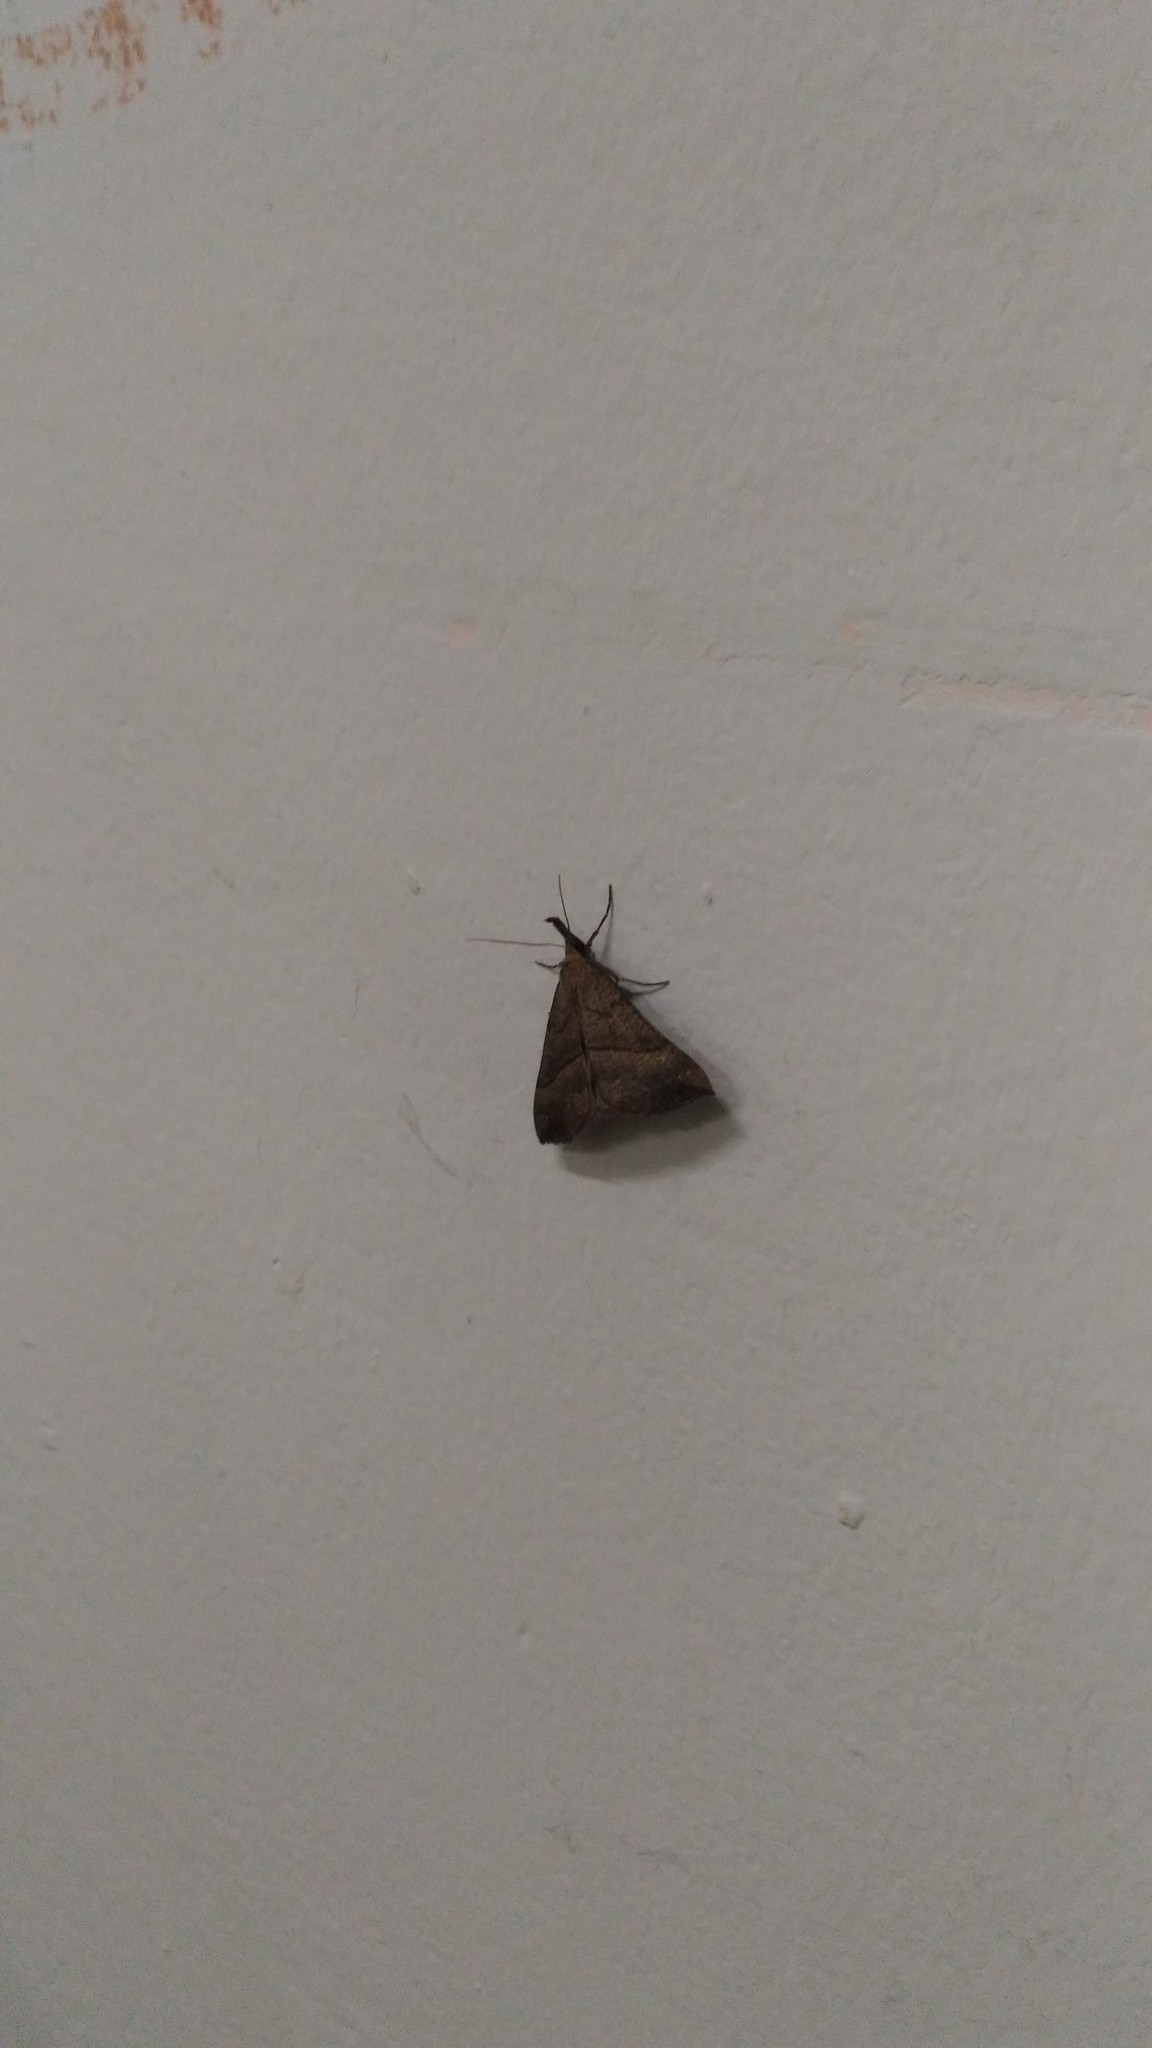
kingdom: Animalia
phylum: Arthropoda
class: Insecta
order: Lepidoptera
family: Erebidae
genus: Hypena
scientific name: Hypena proboscidalis
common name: Snout
